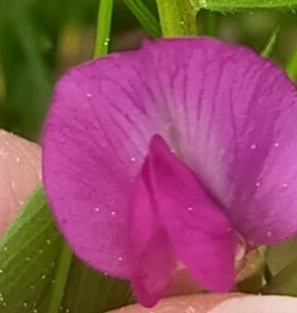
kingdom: Plantae
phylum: Tracheophyta
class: Magnoliopsida
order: Fabales
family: Fabaceae
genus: Vicia
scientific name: Vicia sativa
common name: Garden vetch
